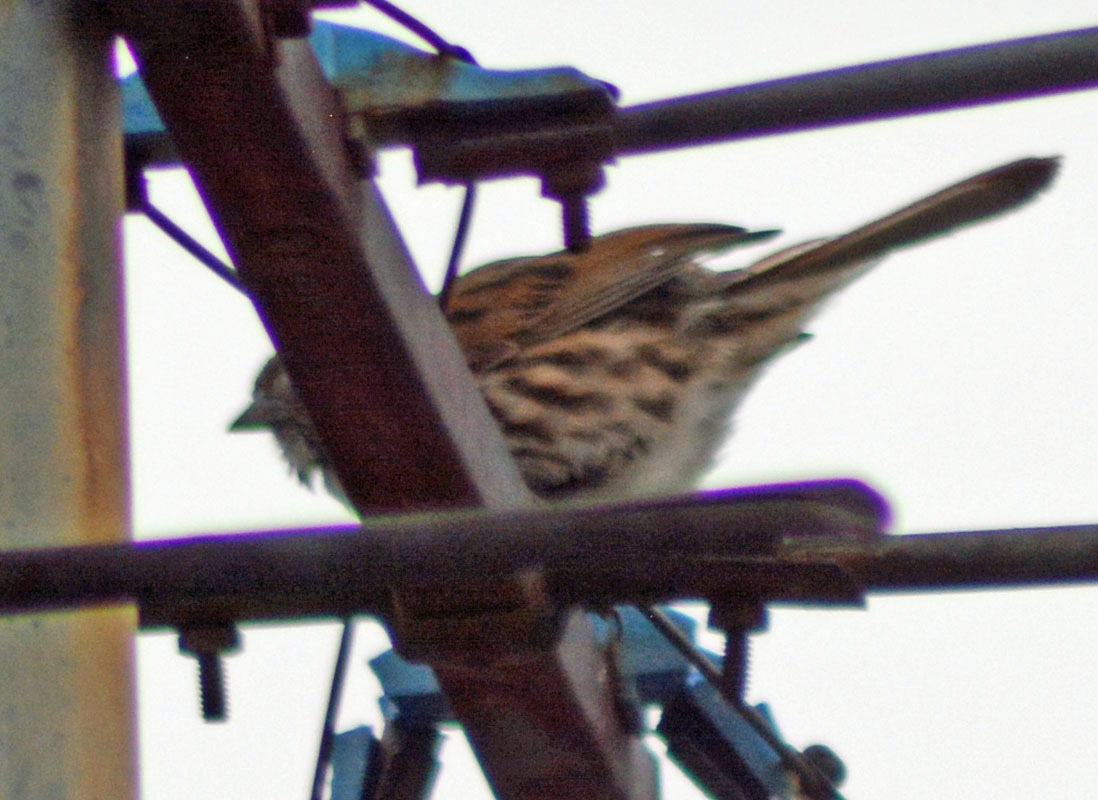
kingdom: Animalia
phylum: Chordata
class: Aves
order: Passeriformes
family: Passerellidae
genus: Melospiza
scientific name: Melospiza melodia
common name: Song sparrow
